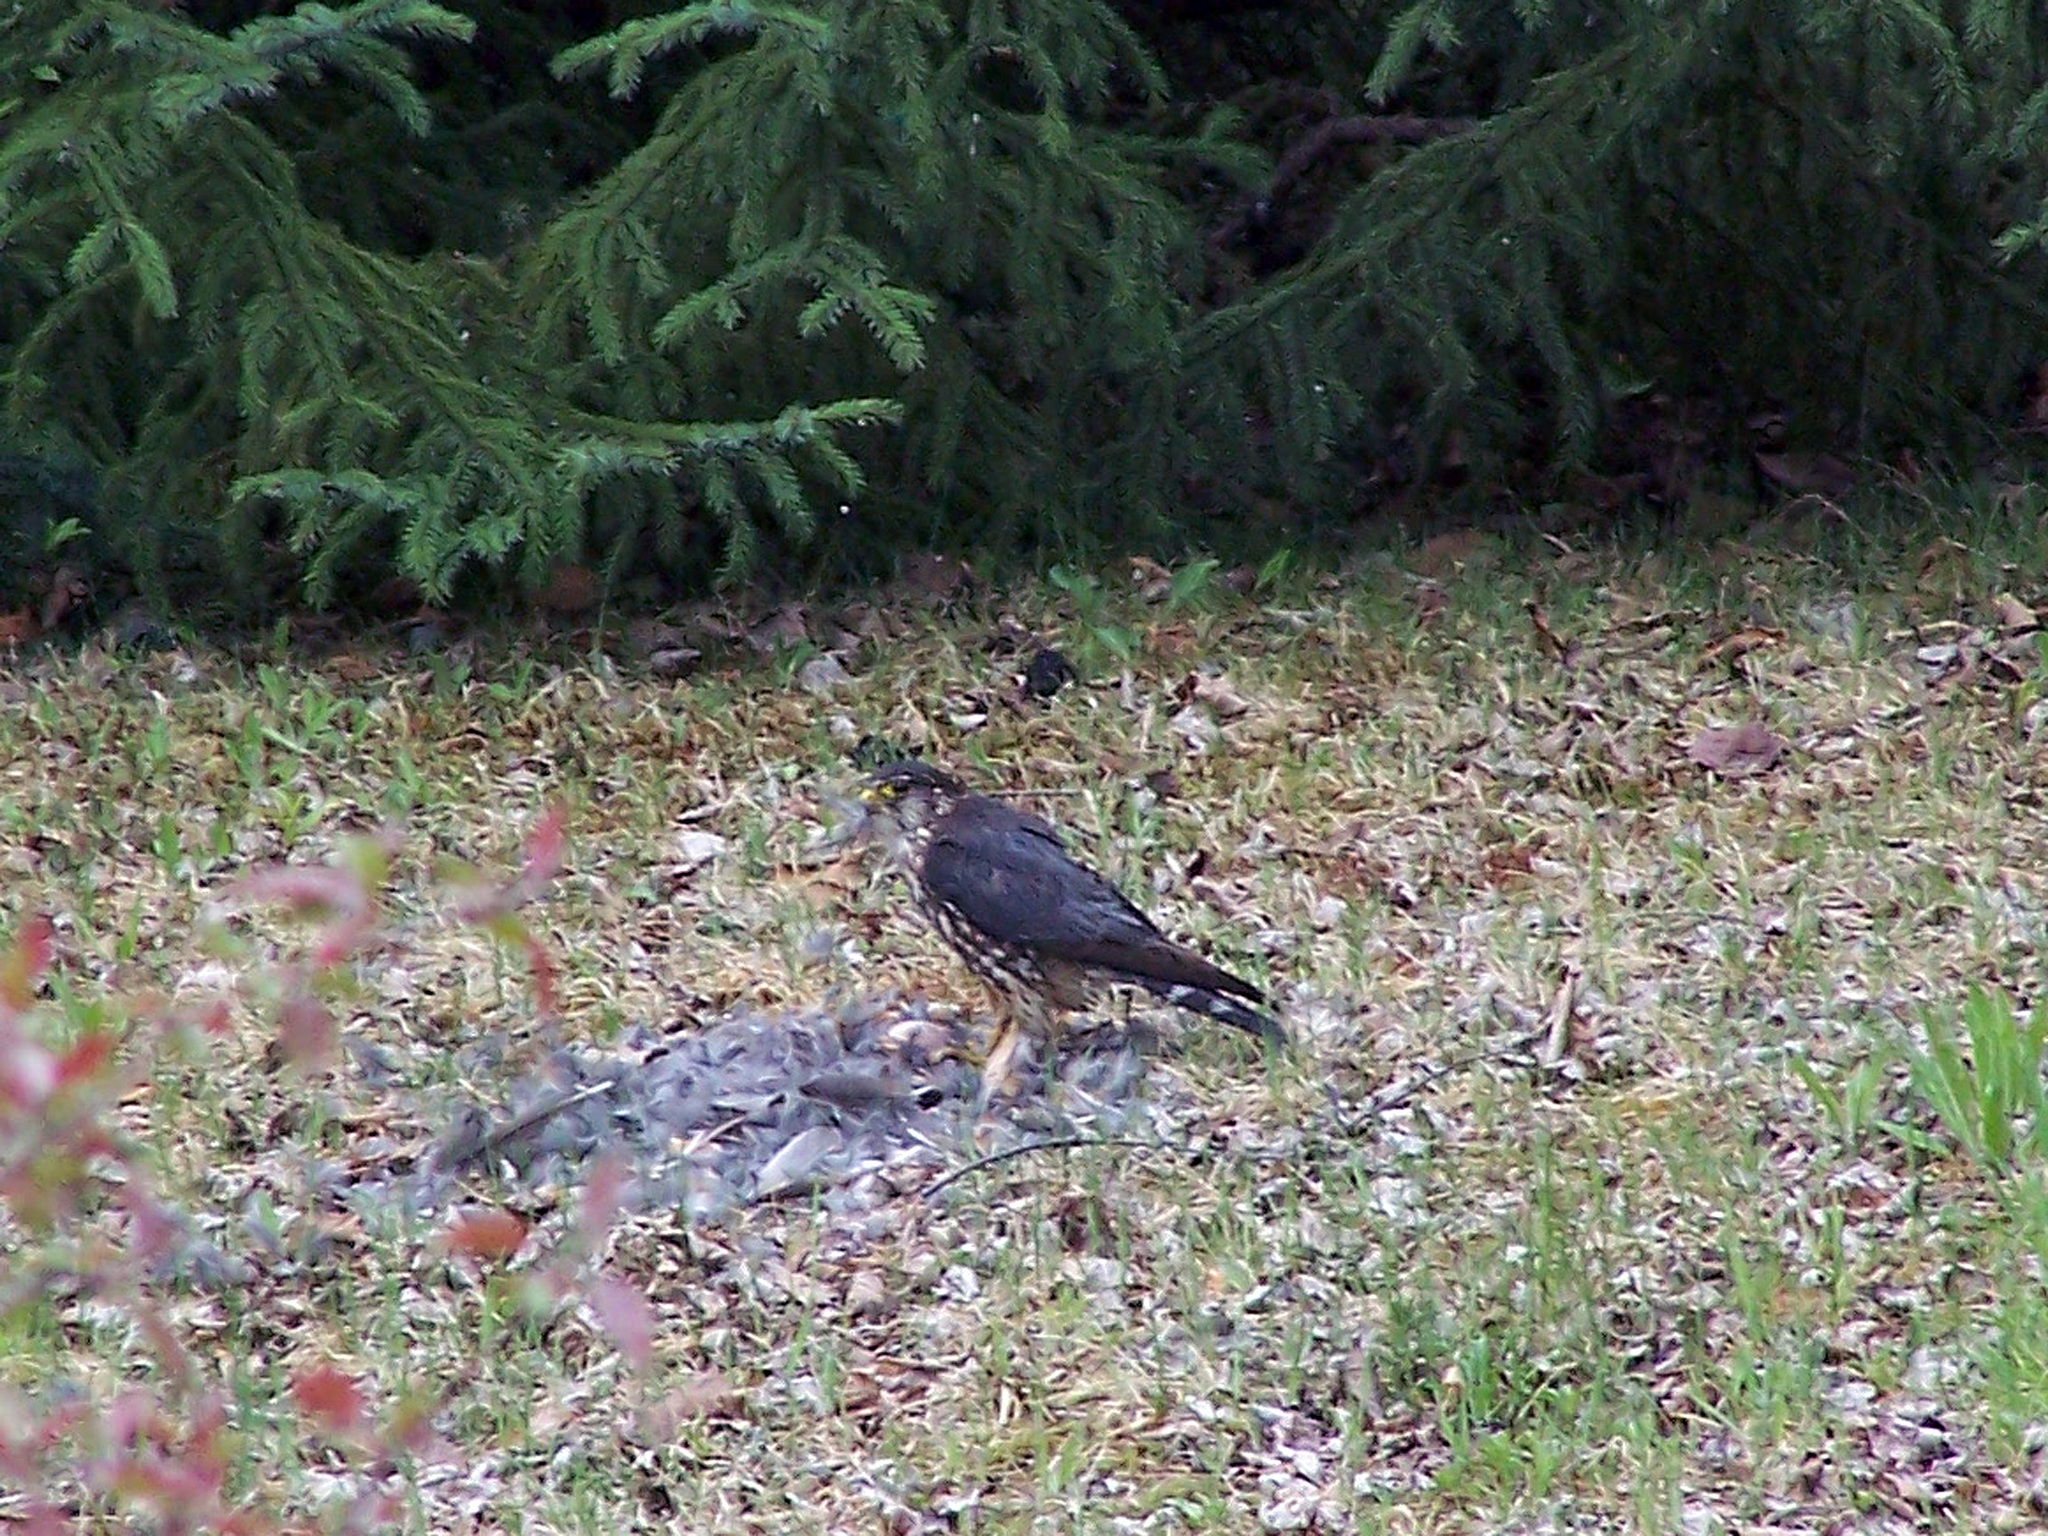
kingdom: Animalia
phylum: Chordata
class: Aves
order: Falconiformes
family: Falconidae
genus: Falco
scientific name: Falco columbarius
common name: Merlin
